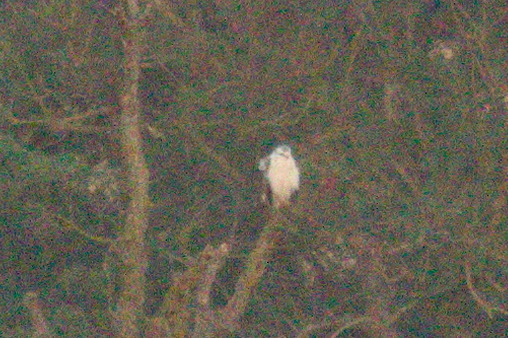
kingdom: Animalia
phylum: Chordata
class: Aves
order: Accipitriformes
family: Accipitridae
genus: Buteo
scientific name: Buteo buteo
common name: Common buzzard
